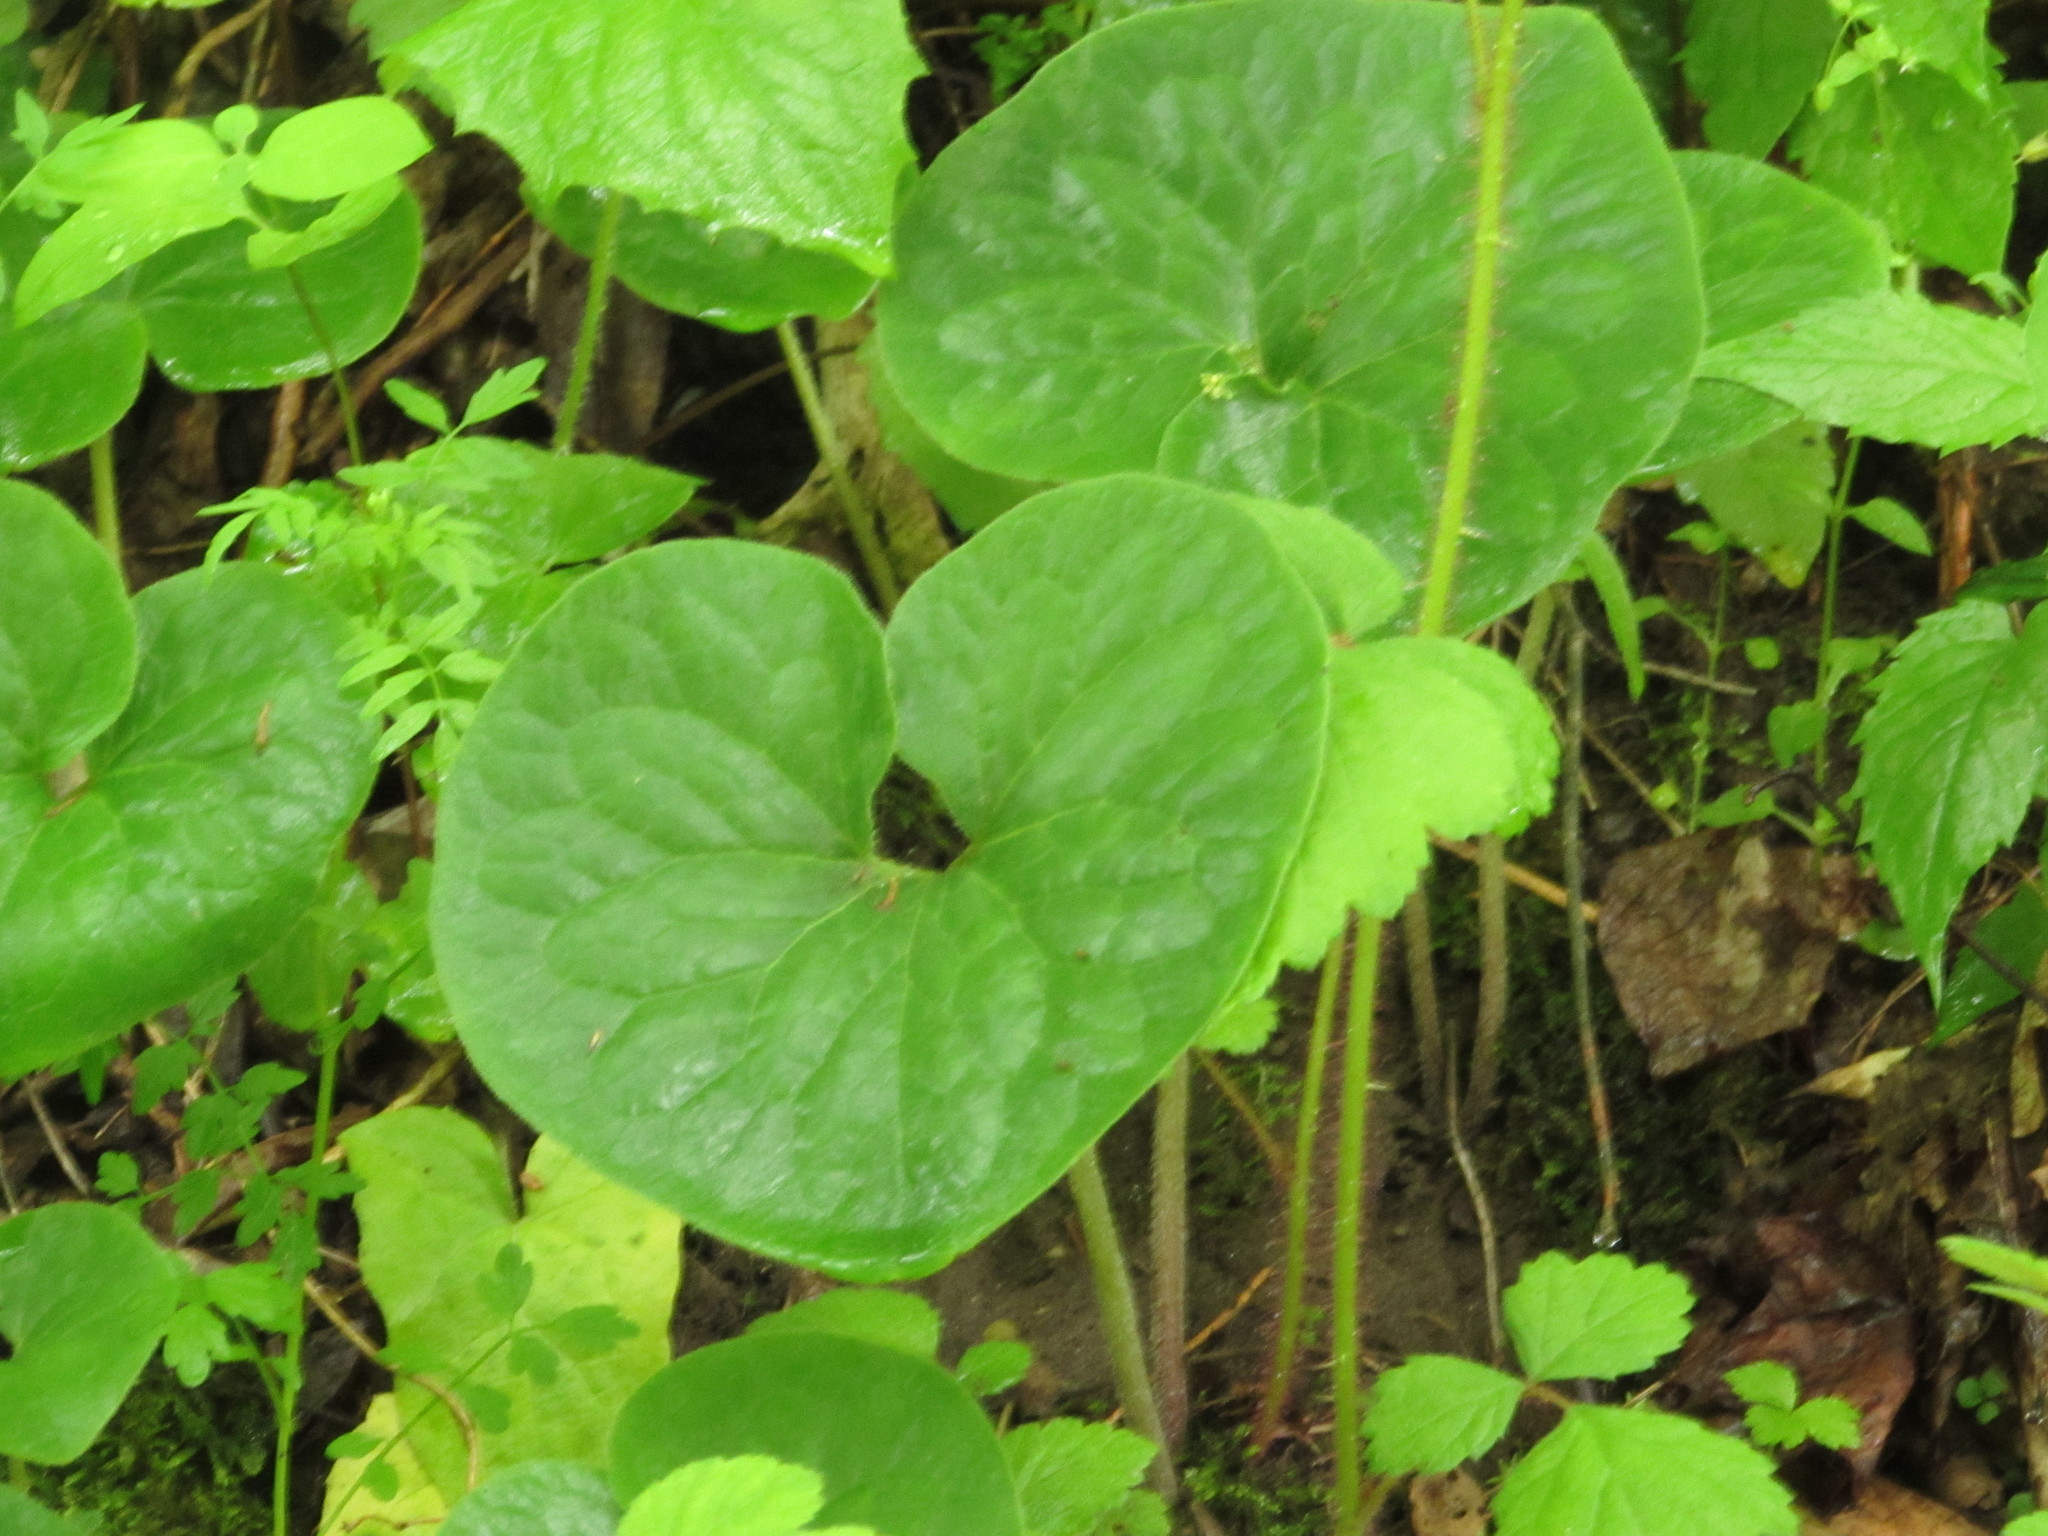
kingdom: Plantae
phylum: Tracheophyta
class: Magnoliopsida
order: Piperales
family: Aristolochiaceae
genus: Asarum
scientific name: Asarum canadense
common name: Wild ginger
